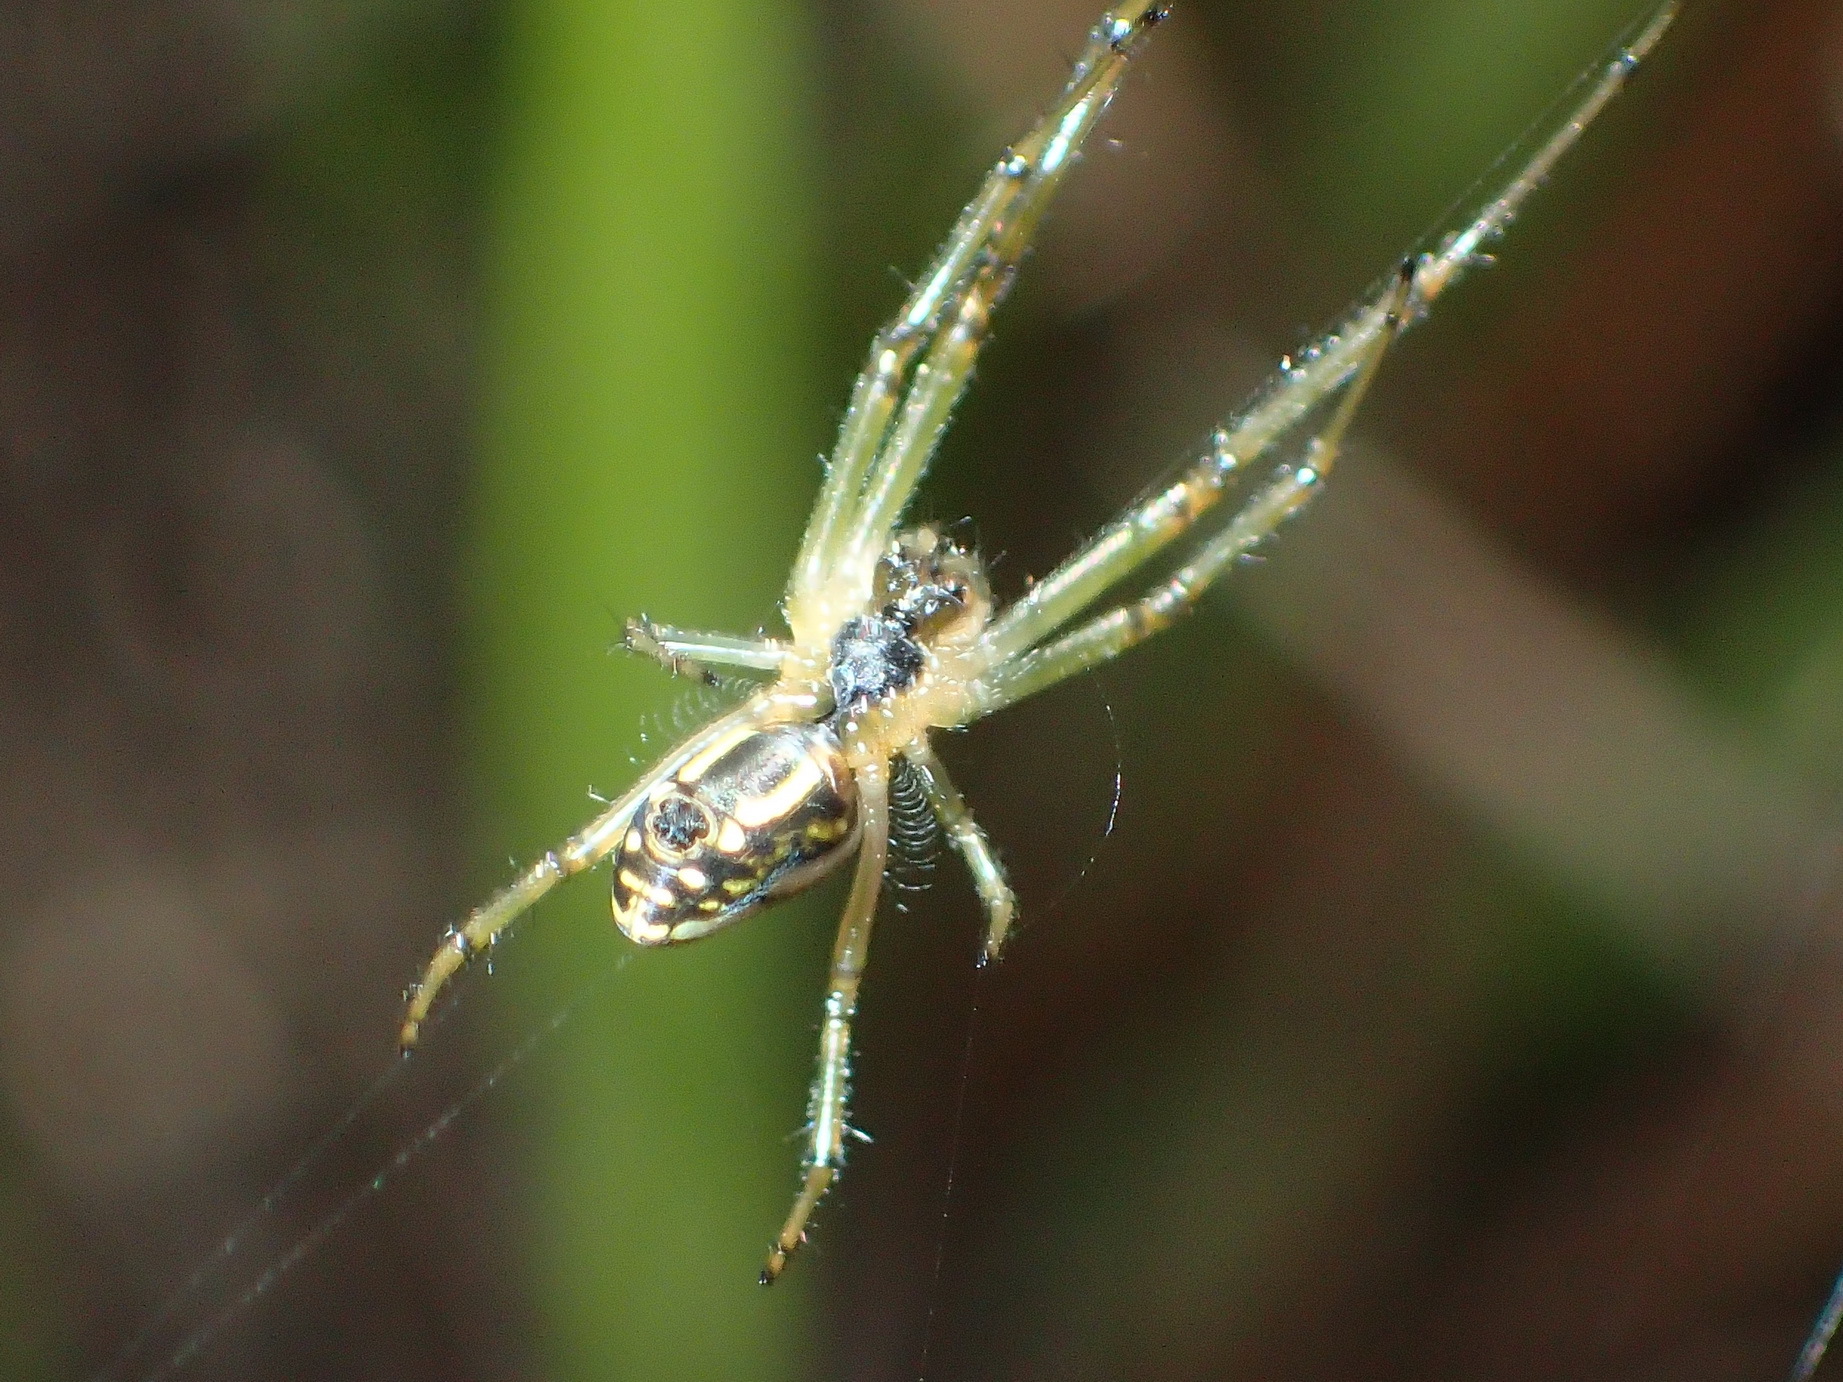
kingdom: Animalia
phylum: Arthropoda
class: Arachnida
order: Araneae
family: Tetragnathidae
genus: Leucauge
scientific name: Leucauge festiva
